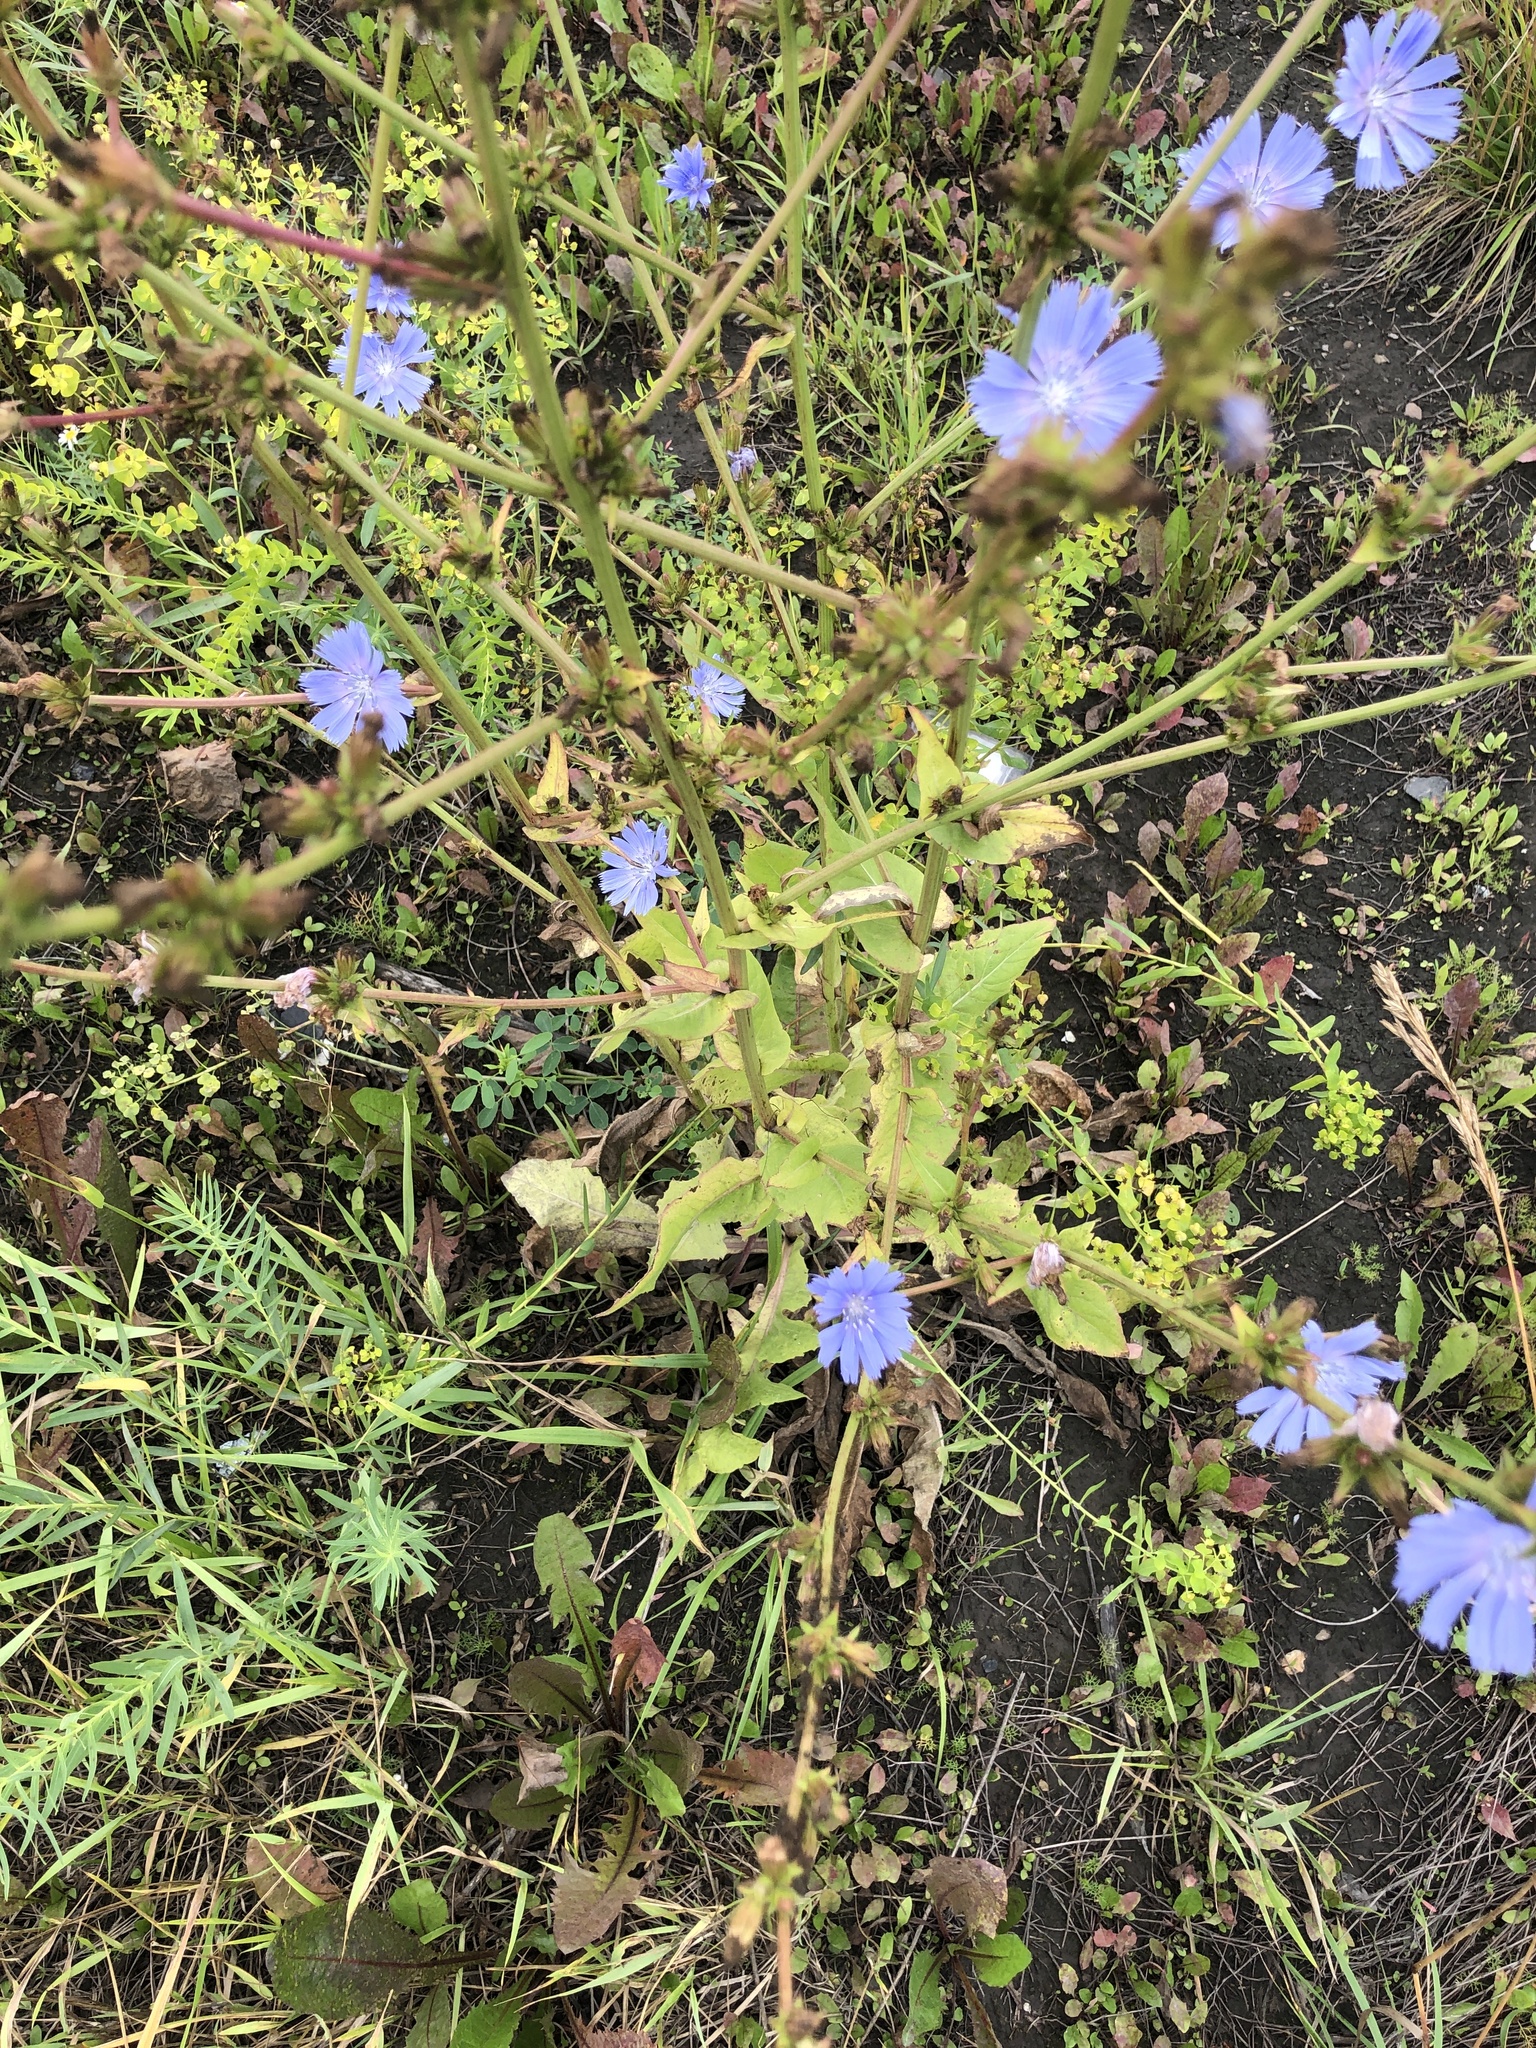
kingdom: Plantae
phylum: Tracheophyta
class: Magnoliopsida
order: Asterales
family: Asteraceae
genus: Cichorium
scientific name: Cichorium intybus
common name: Chicory
